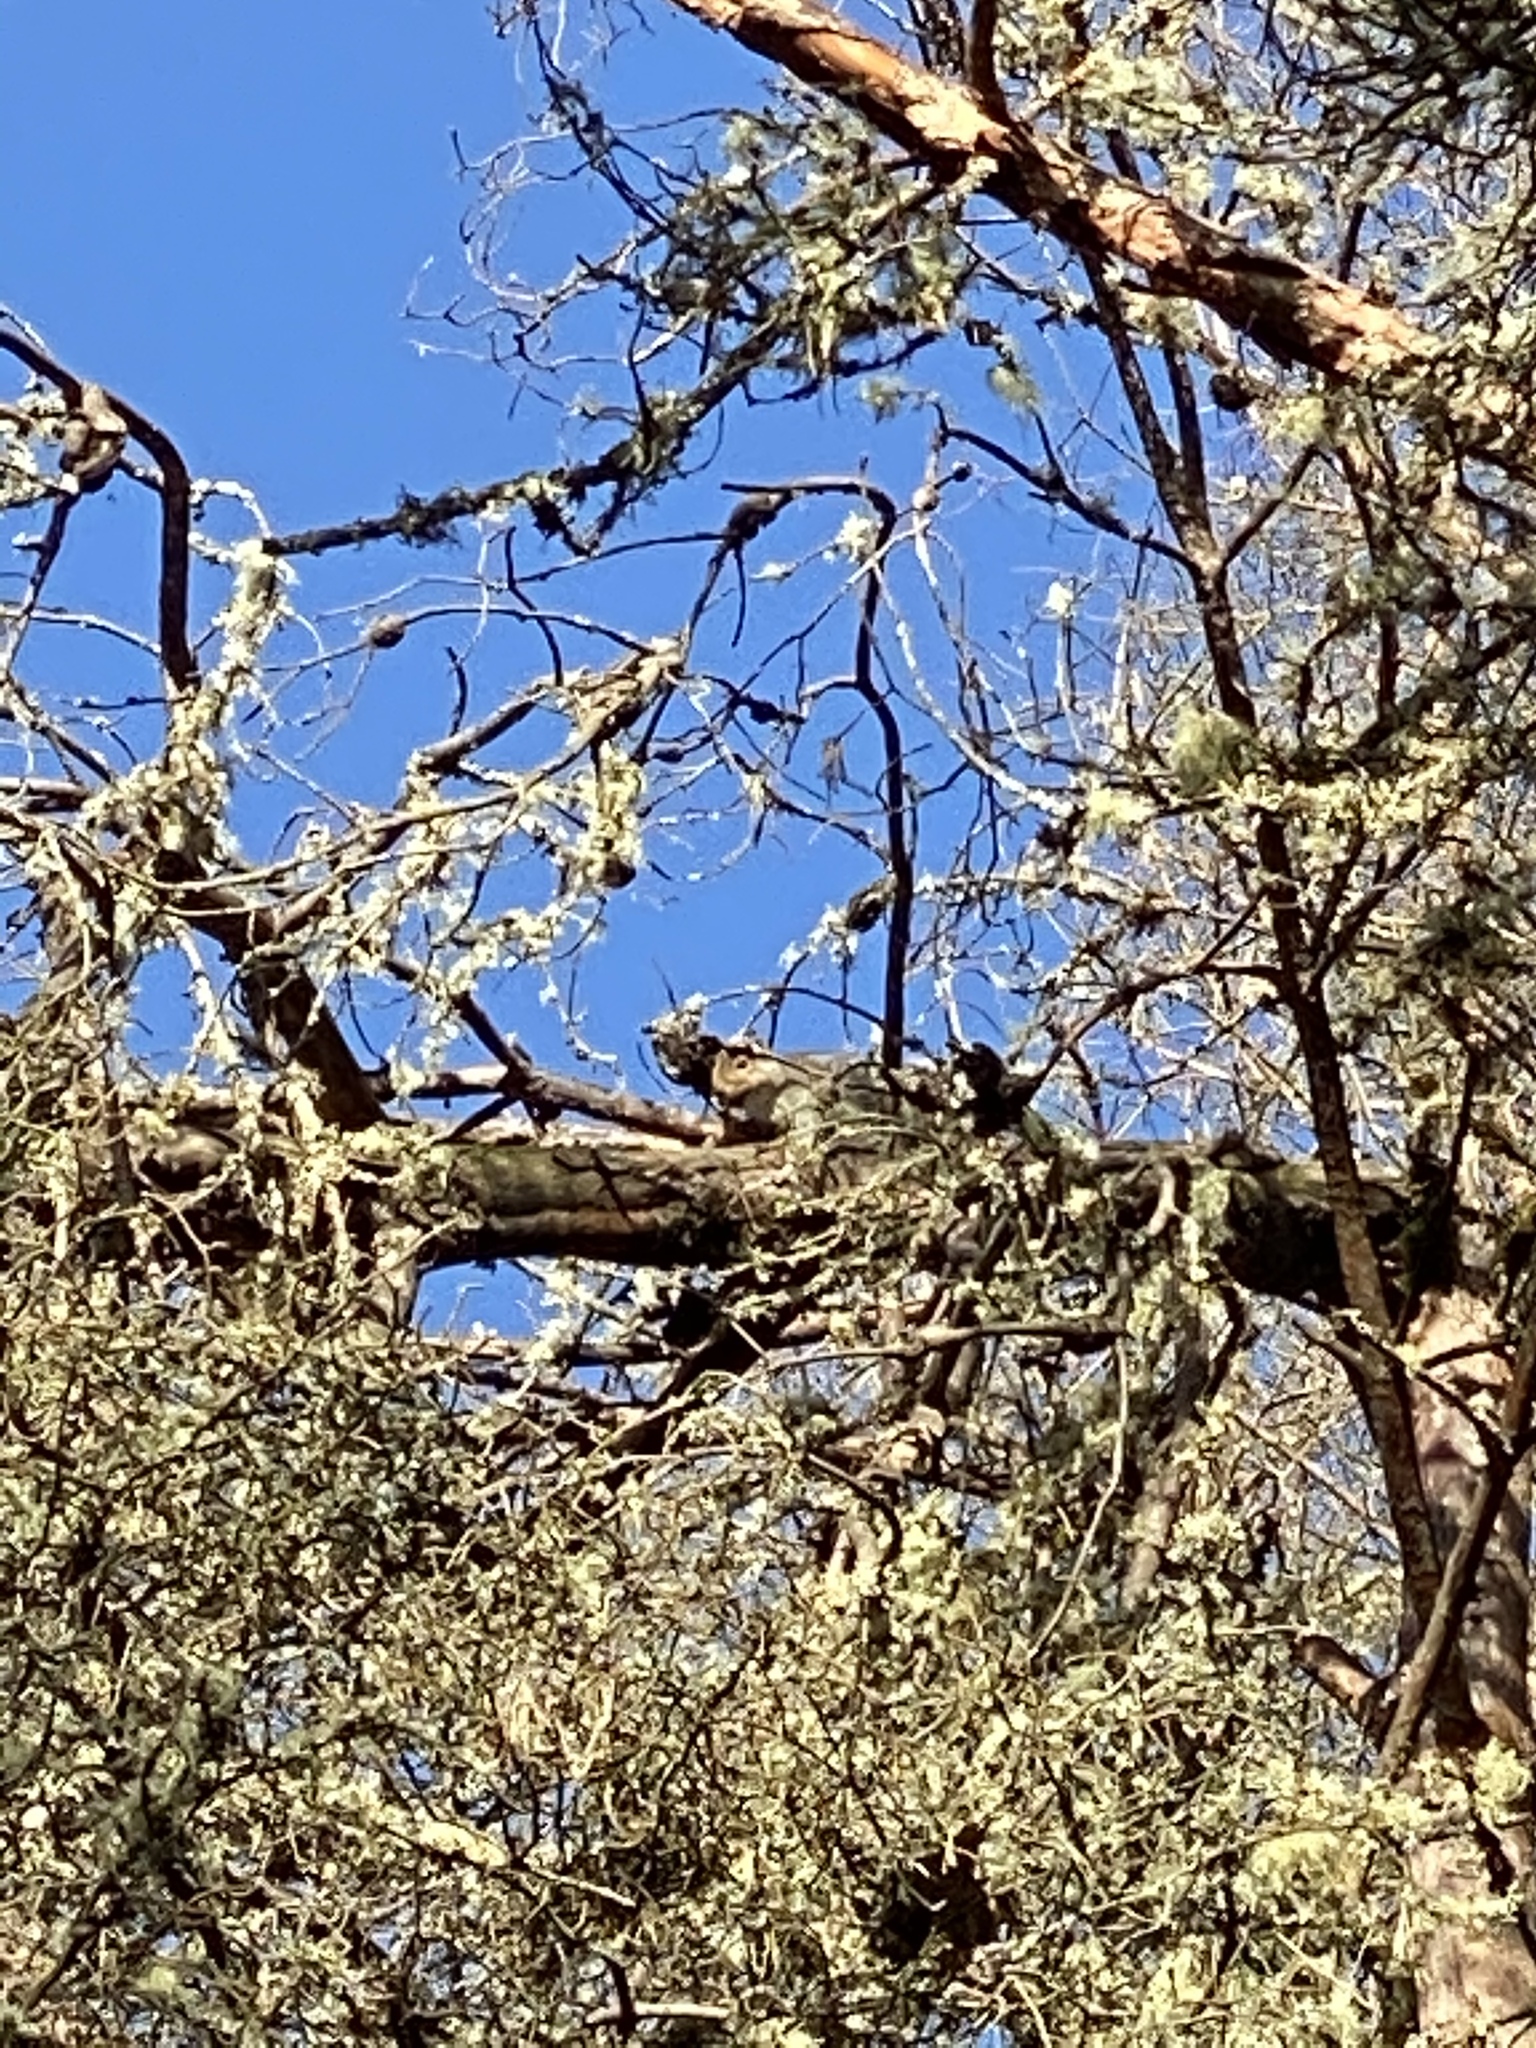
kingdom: Animalia
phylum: Chordata
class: Mammalia
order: Rodentia
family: Sciuridae
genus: Sciurus
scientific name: Sciurus carolinensis
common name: Eastern gray squirrel
